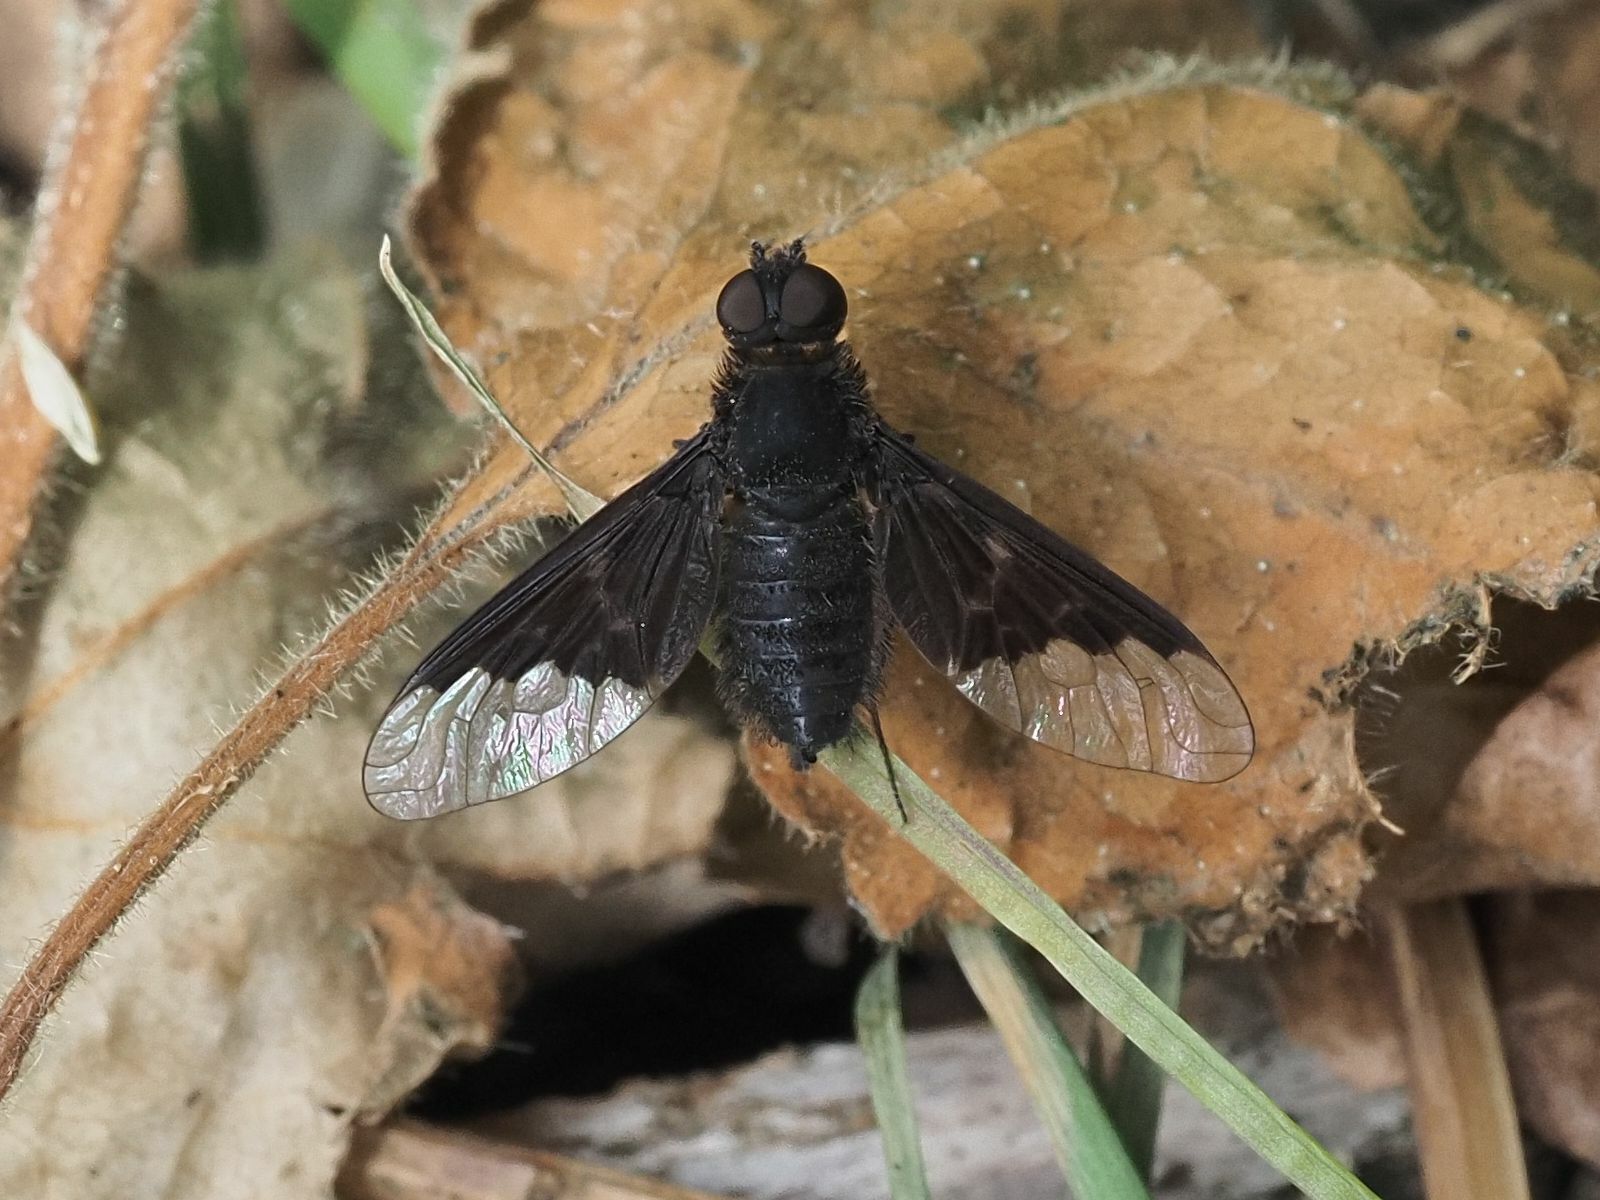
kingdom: Animalia
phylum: Arthropoda
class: Insecta
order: Diptera
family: Bombyliidae
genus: Hemipenthes
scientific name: Hemipenthes morio
